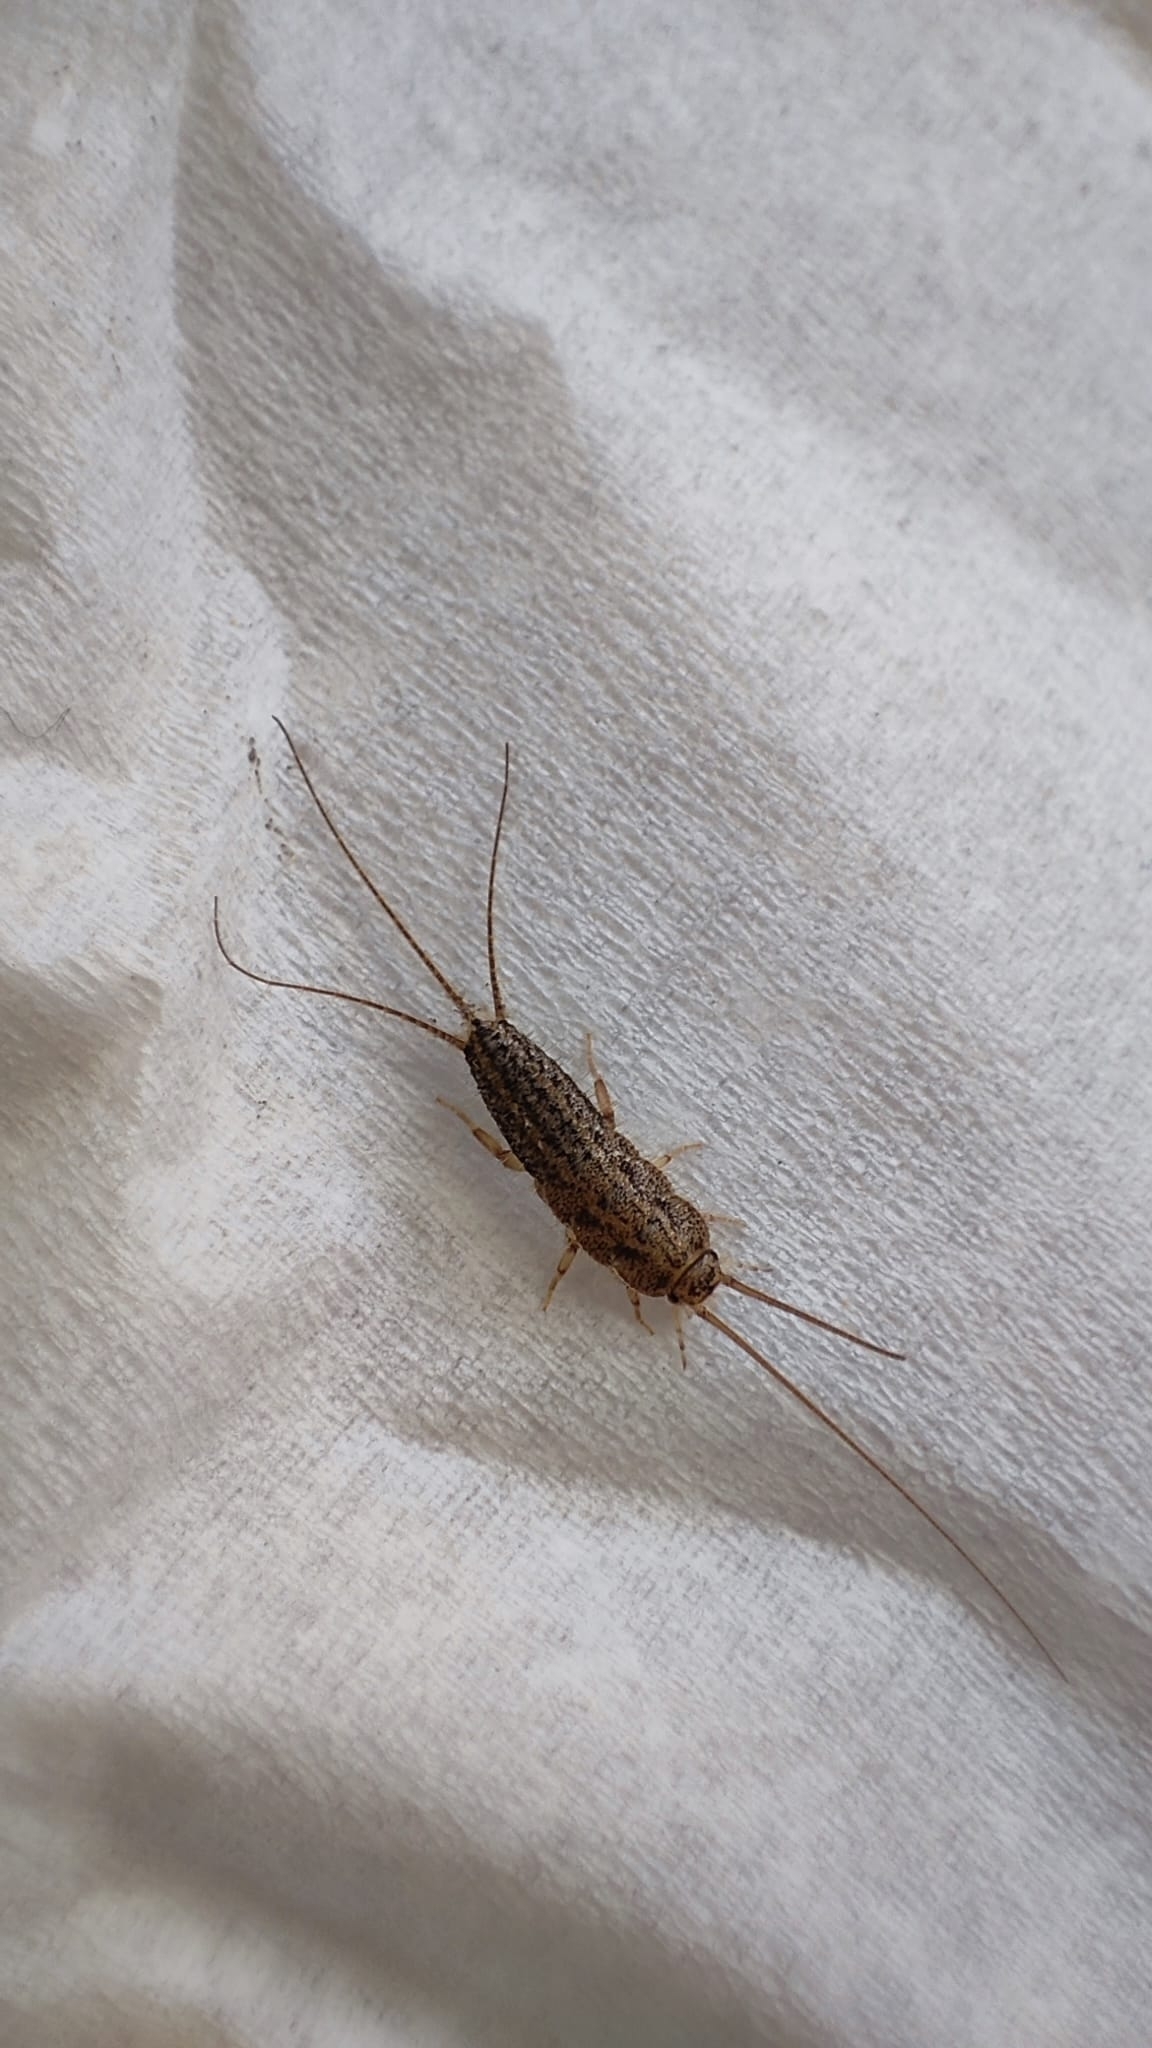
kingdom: Animalia
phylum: Arthropoda
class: Insecta
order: Zygentoma
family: Lepismatidae
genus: Ctenolepisma
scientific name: Ctenolepisma lineata
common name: Four-lined silverfish
